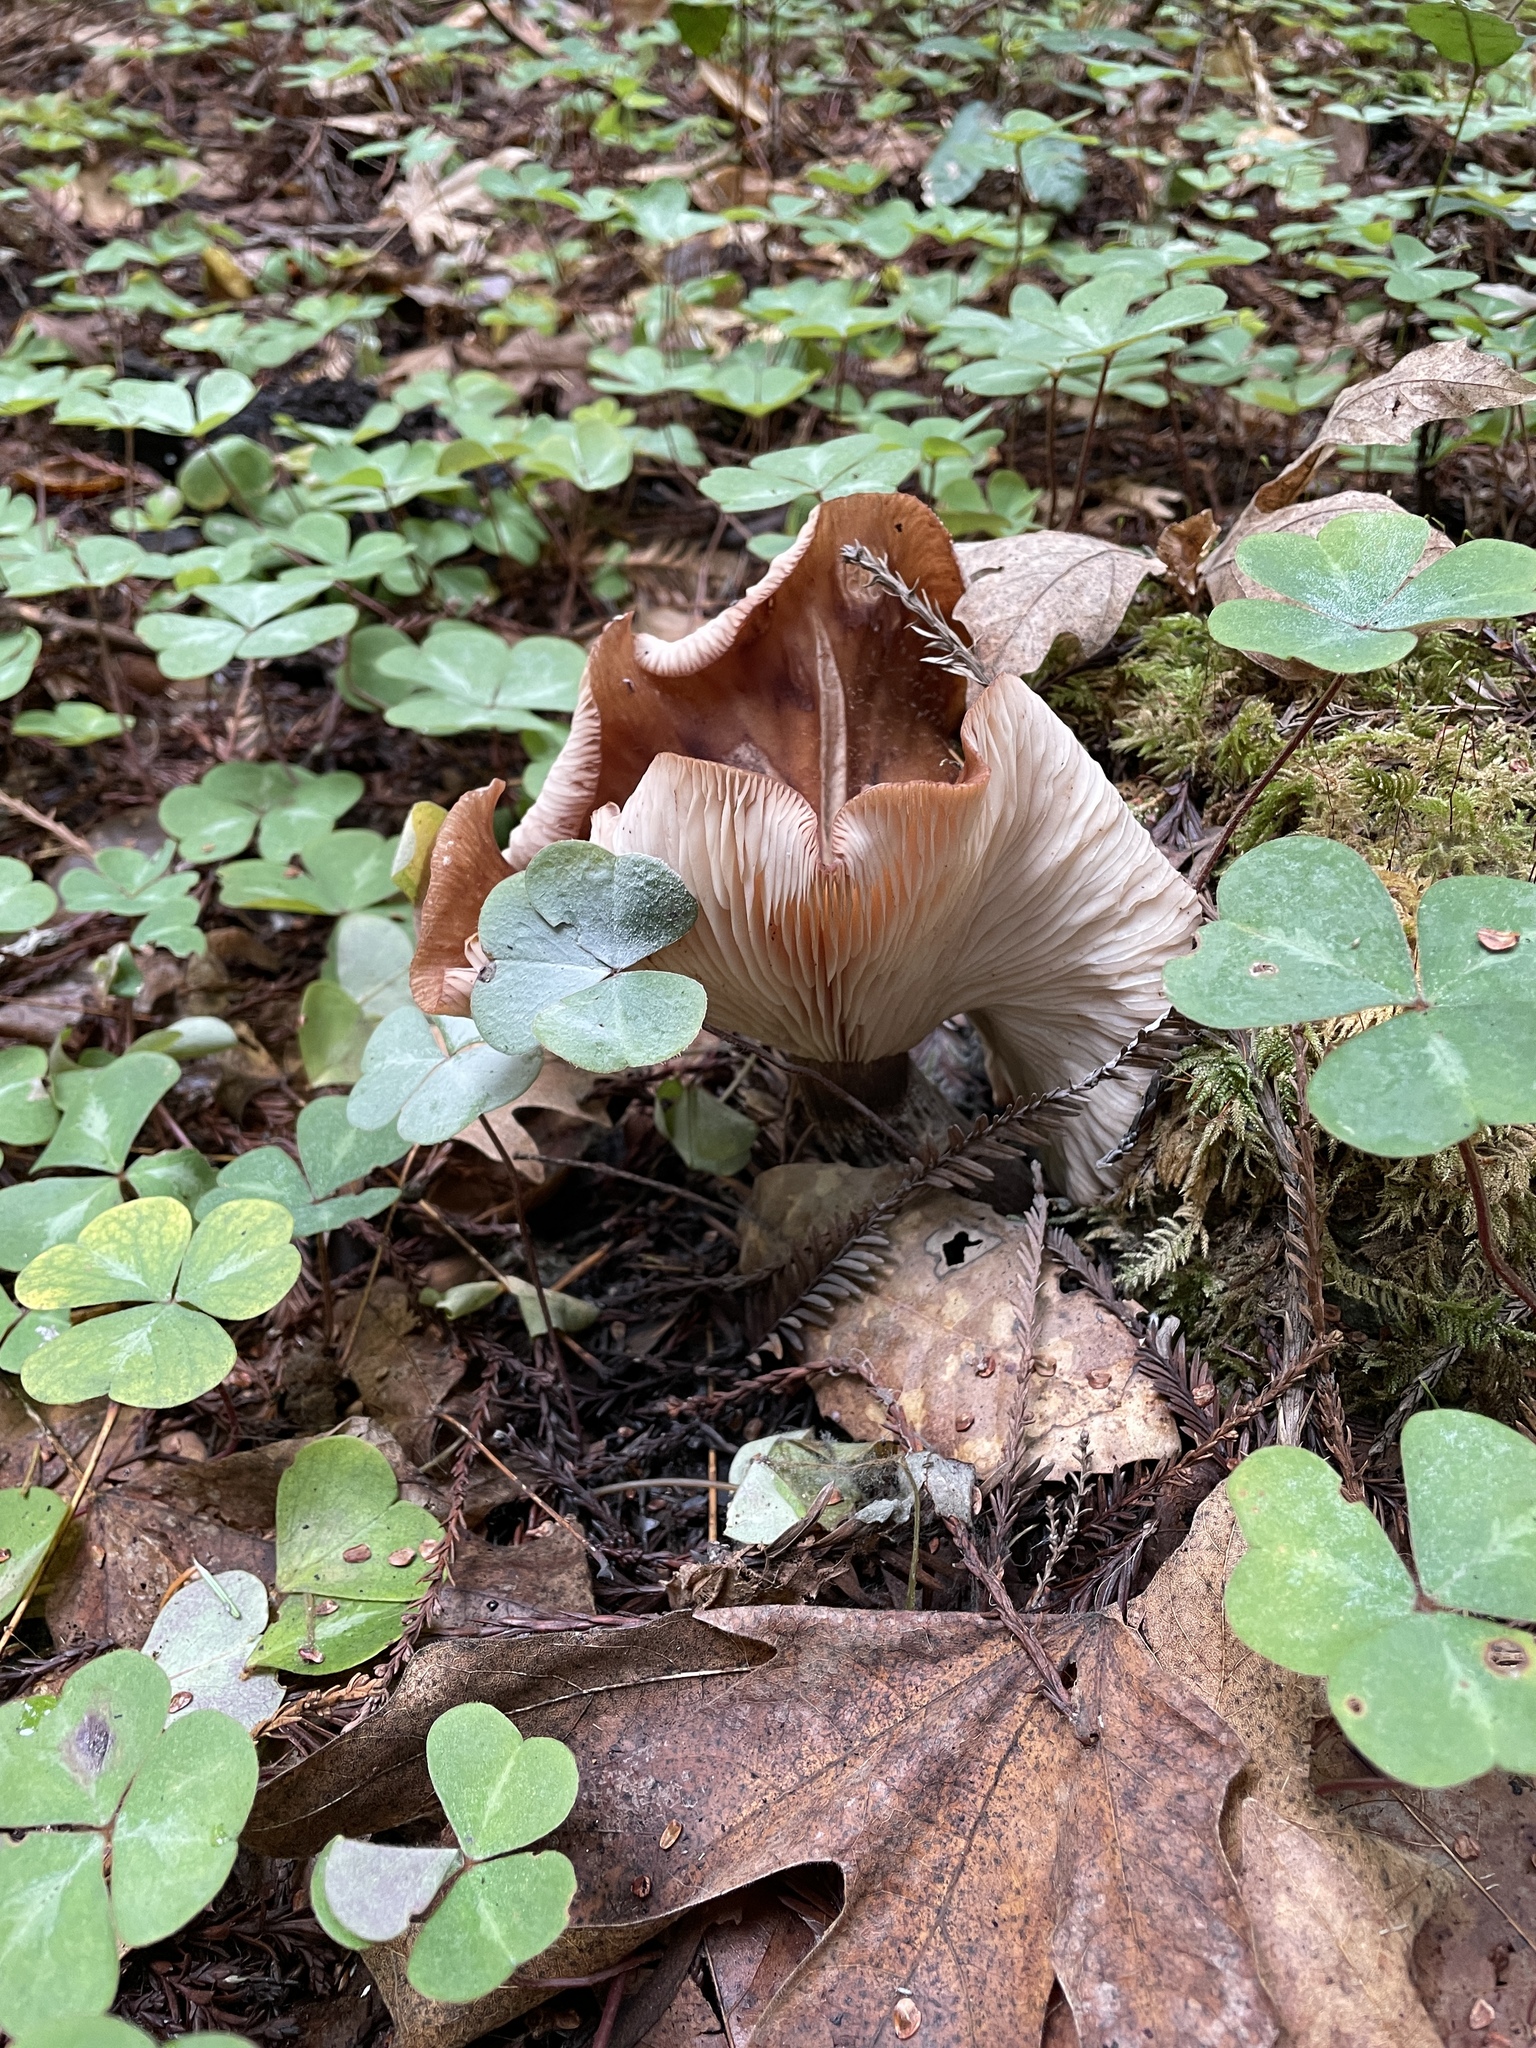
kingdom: Fungi
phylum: Basidiomycota
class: Agaricomycetes
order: Agaricales
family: Physalacriaceae
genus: Armillaria
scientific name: Armillaria sinapina
